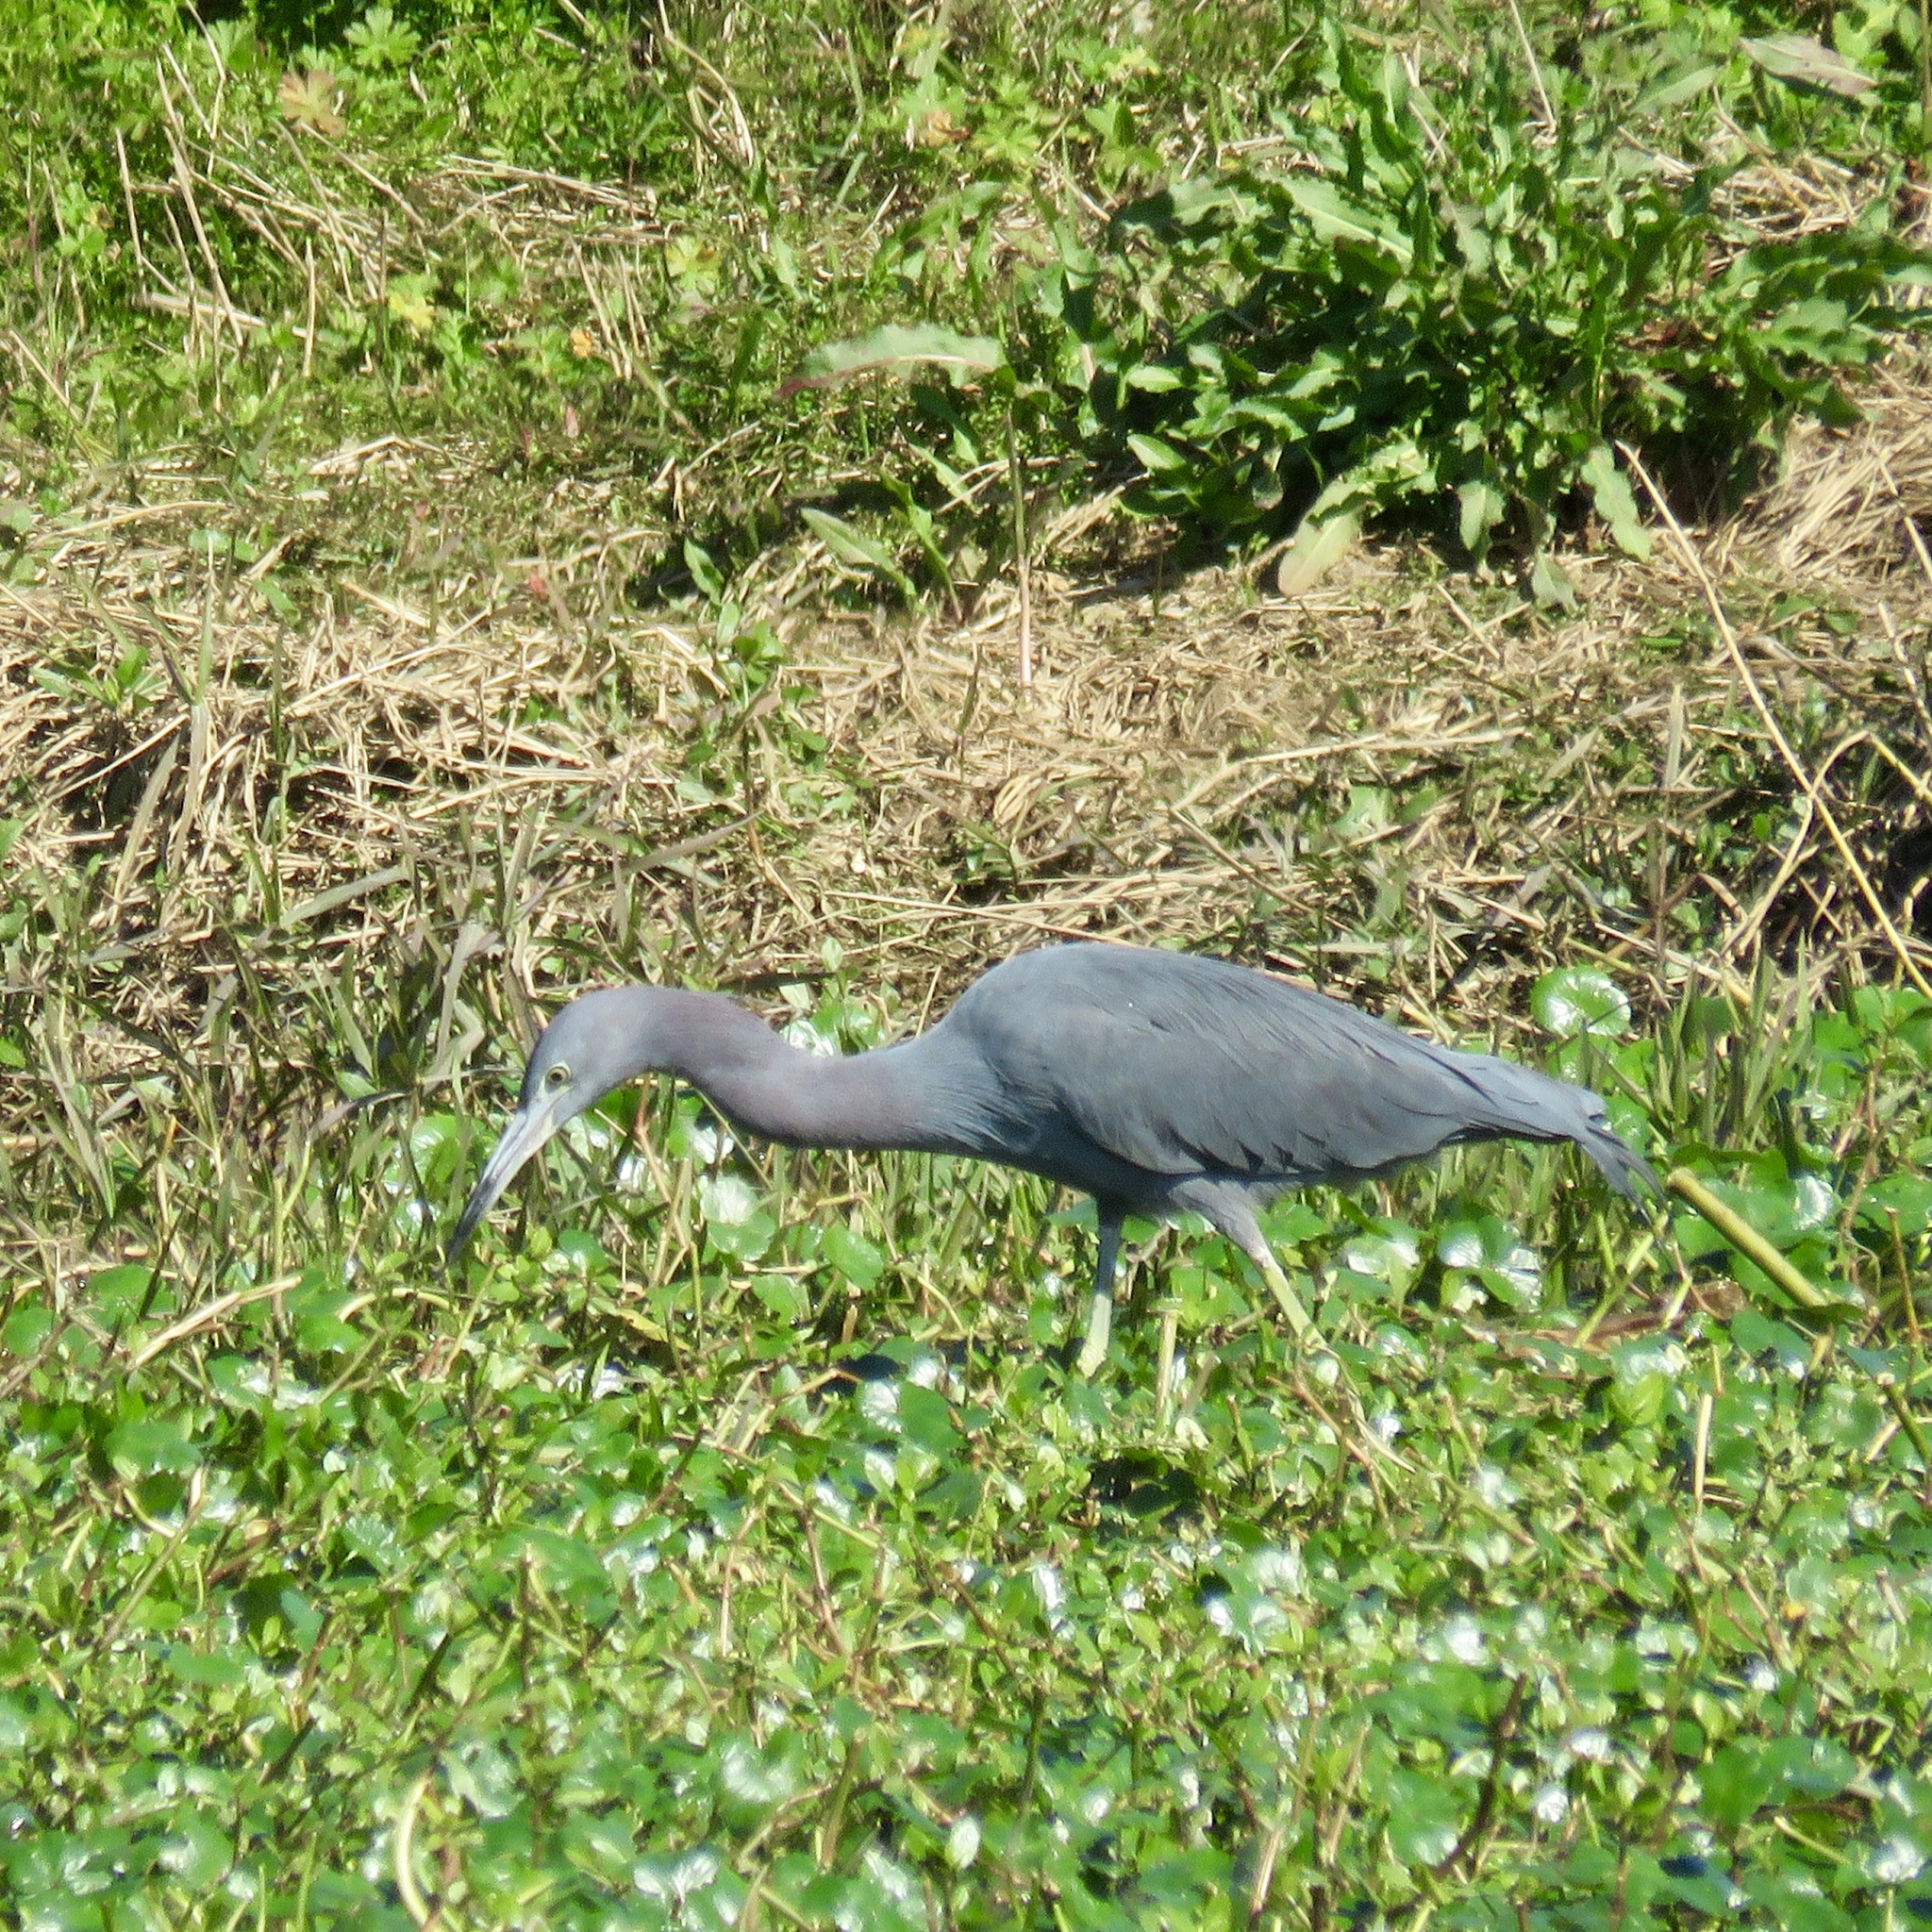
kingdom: Animalia
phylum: Chordata
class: Aves
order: Pelecaniformes
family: Ardeidae
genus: Egretta
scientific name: Egretta caerulea
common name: Little blue heron
